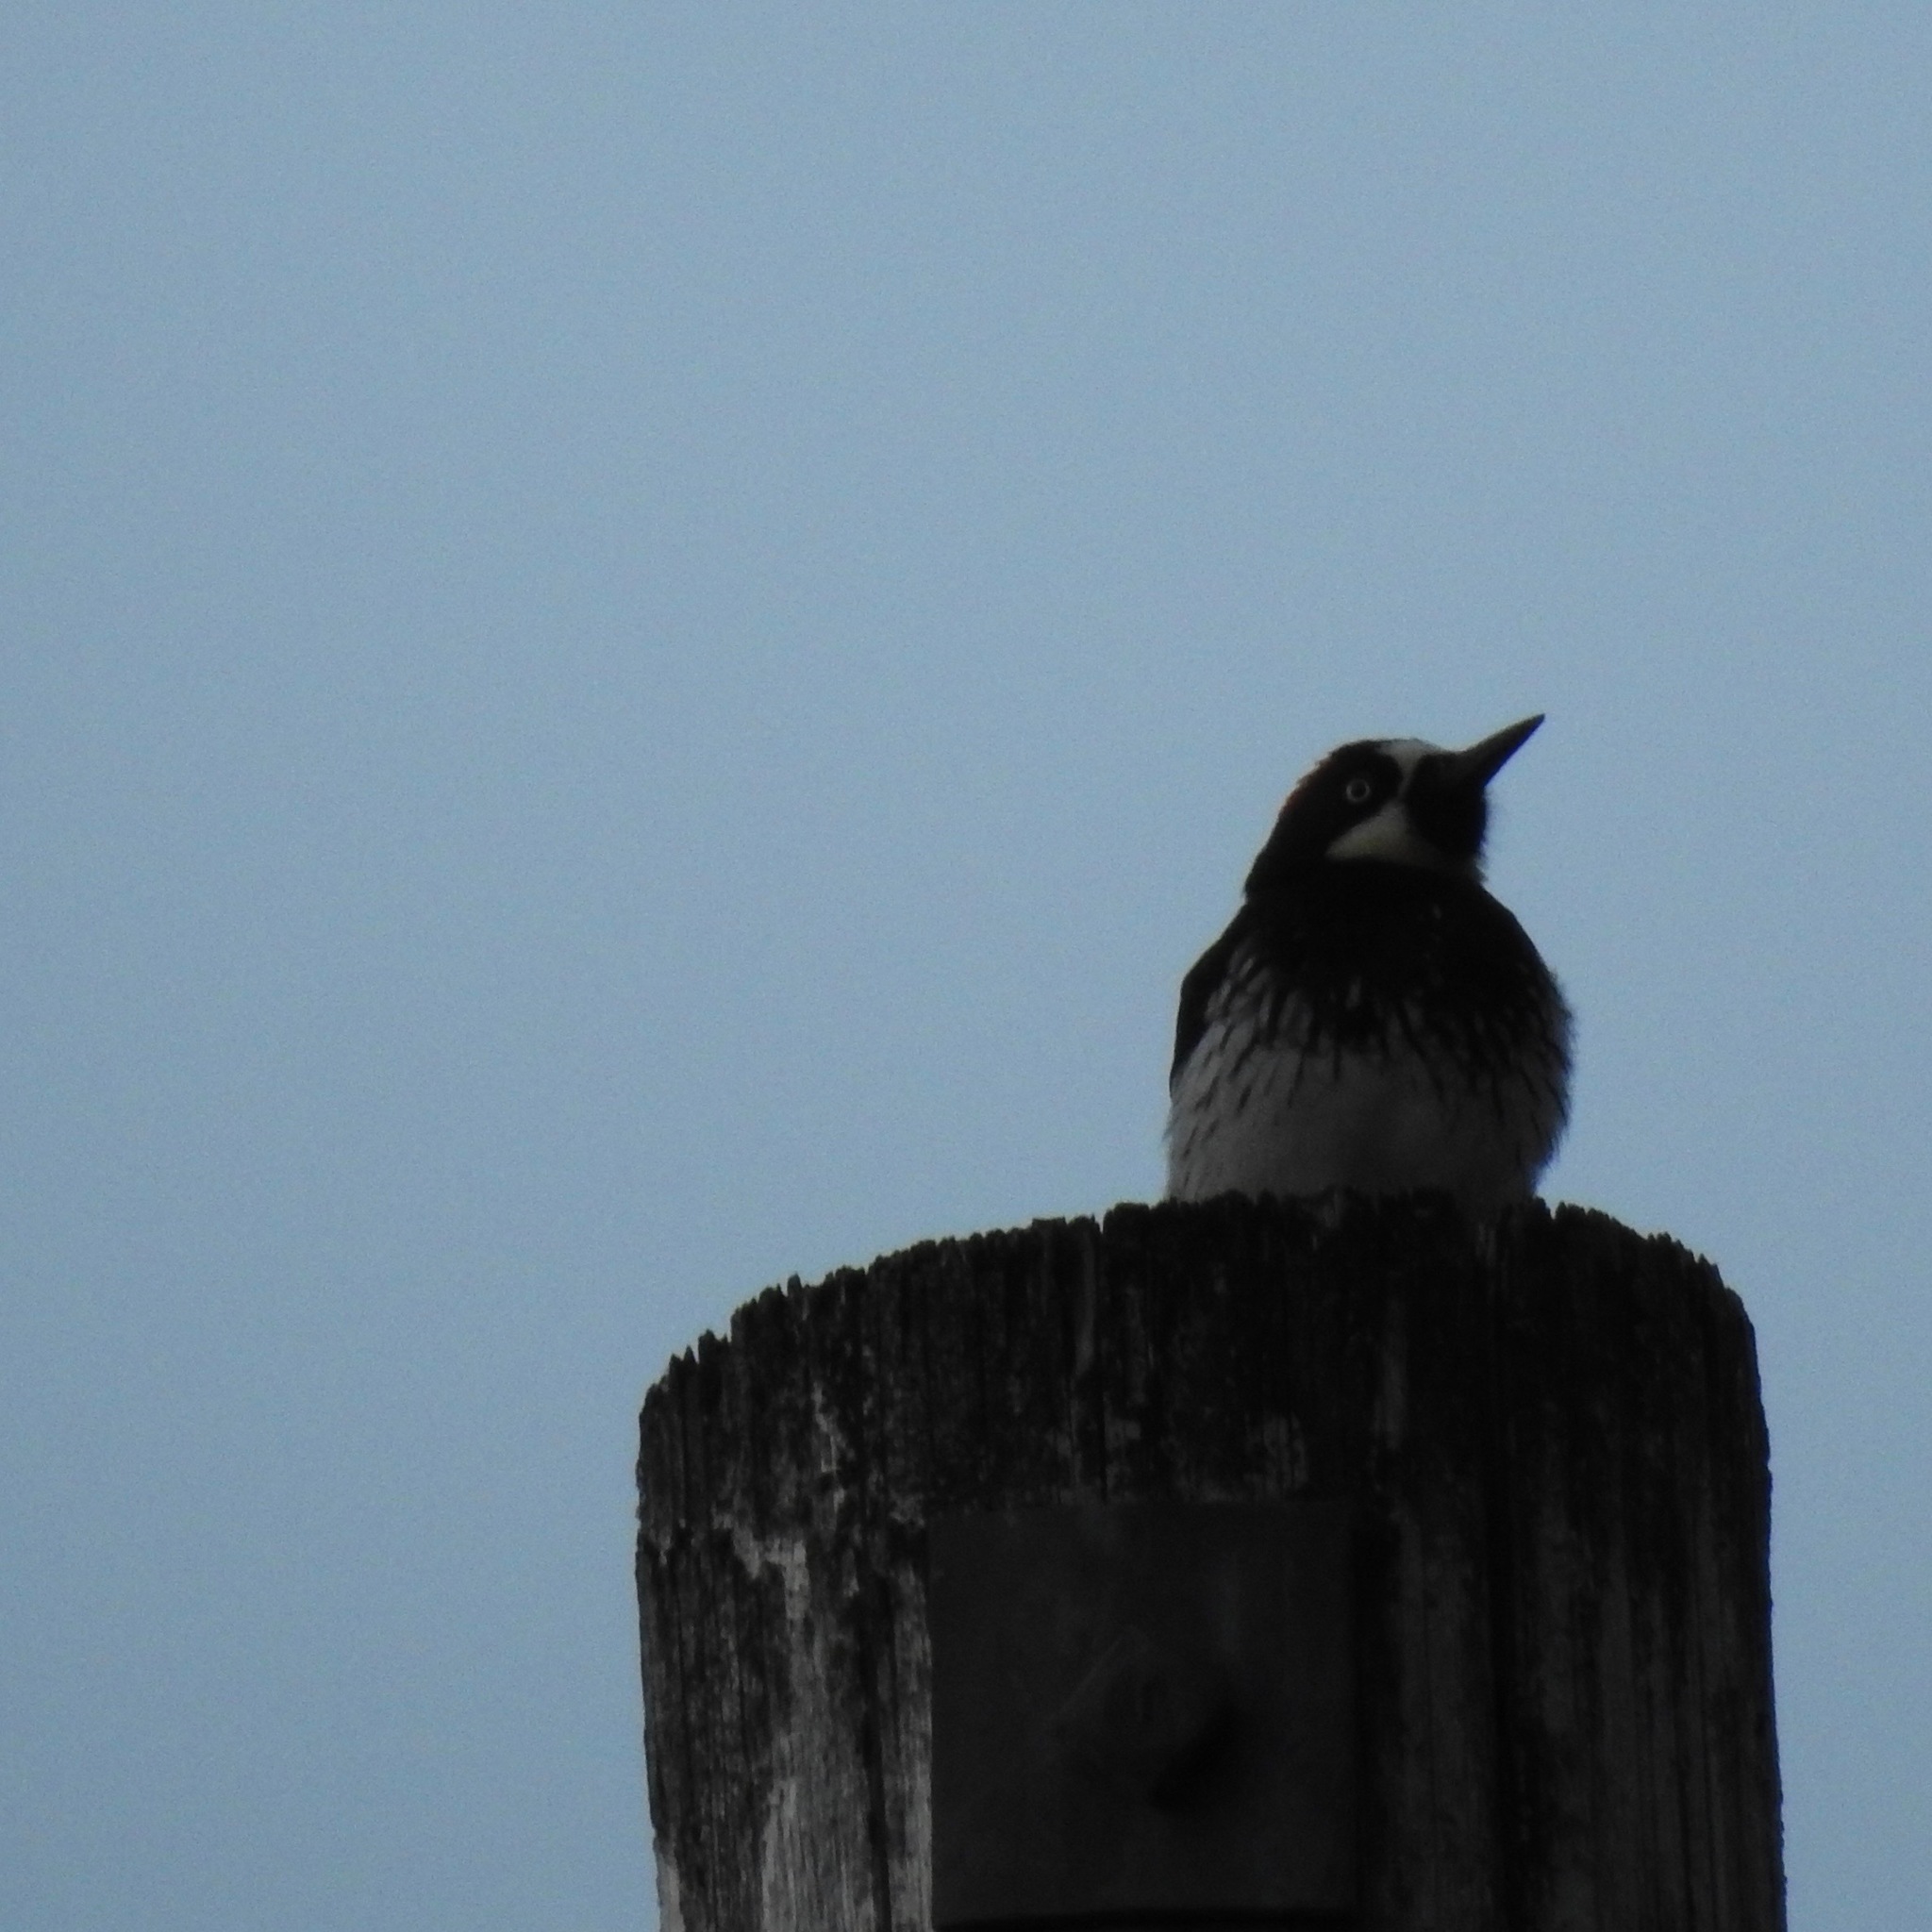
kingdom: Animalia
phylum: Chordata
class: Aves
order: Piciformes
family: Picidae
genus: Melanerpes
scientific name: Melanerpes formicivorus
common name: Acorn woodpecker
